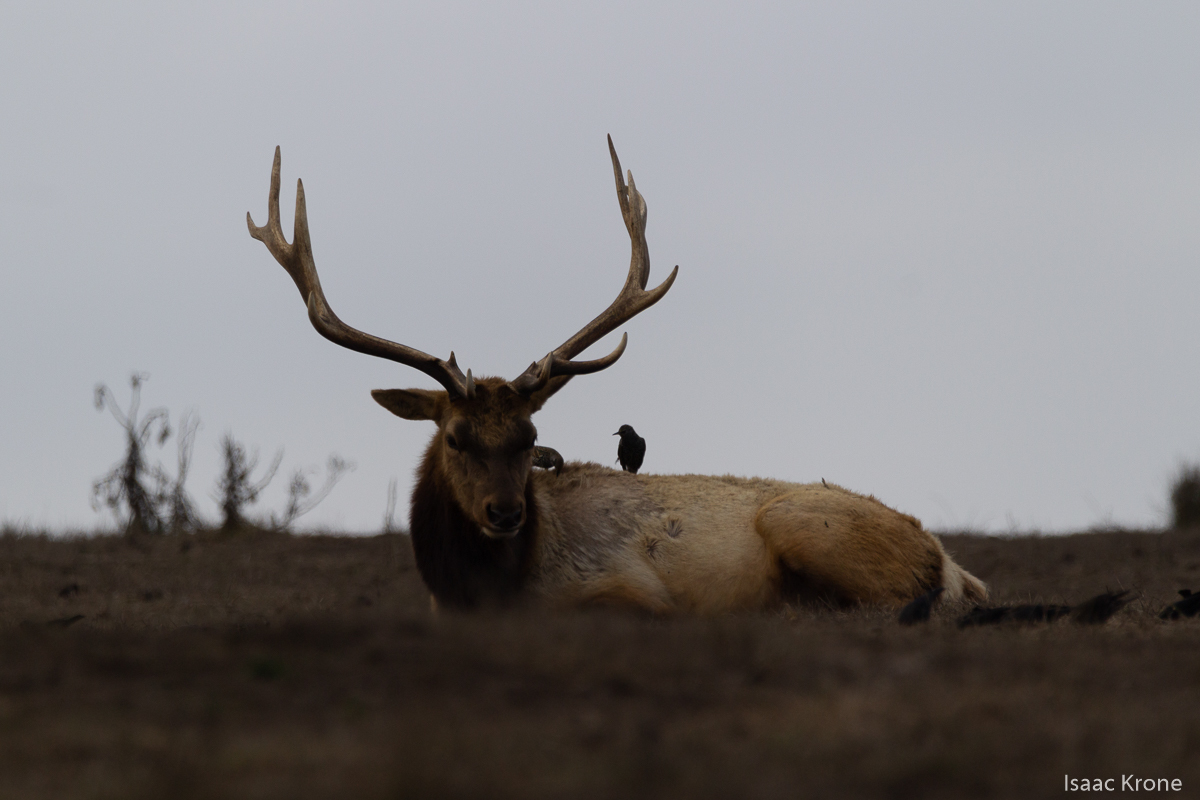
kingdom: Animalia
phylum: Chordata
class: Aves
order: Passeriformes
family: Sturnidae
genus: Sturnus
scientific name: Sturnus vulgaris
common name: Common starling
